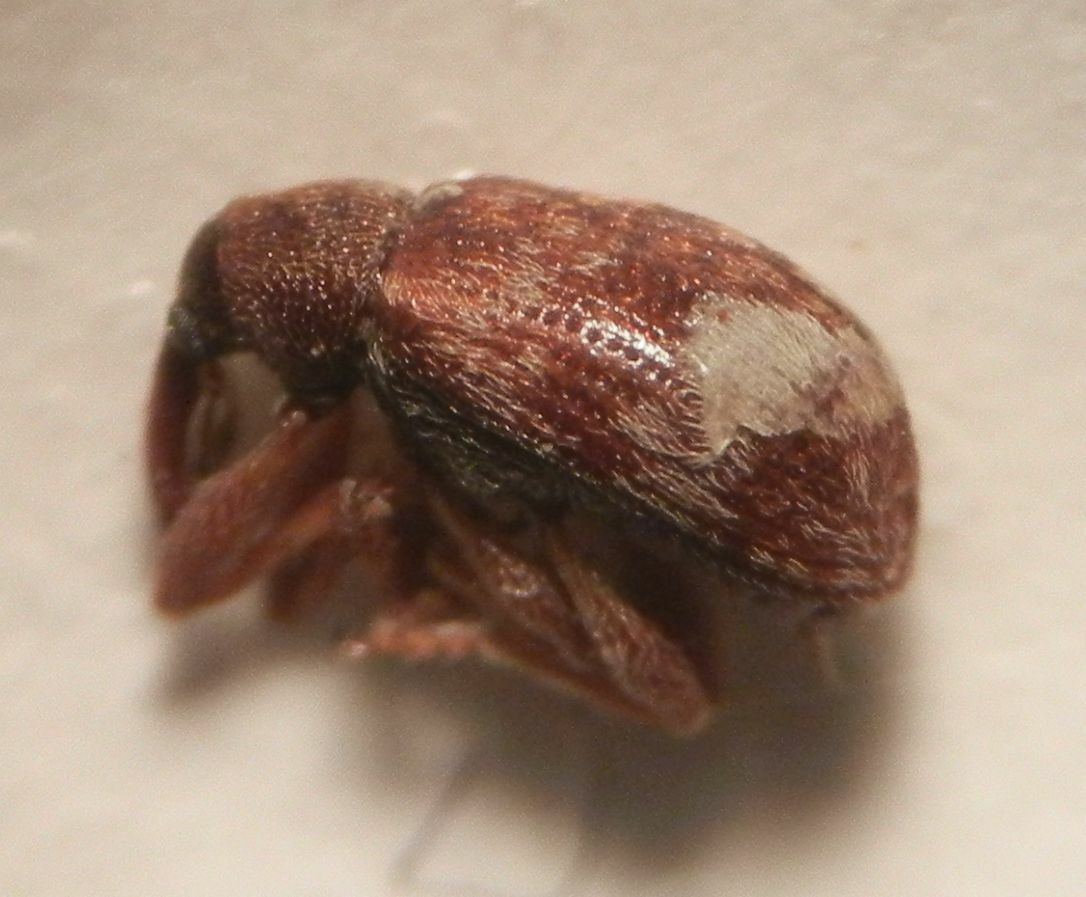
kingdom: Animalia
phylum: Arthropoda
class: Insecta
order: Coleoptera
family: Curculionidae
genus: Anthonomus
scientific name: Anthonomus pedicularius
